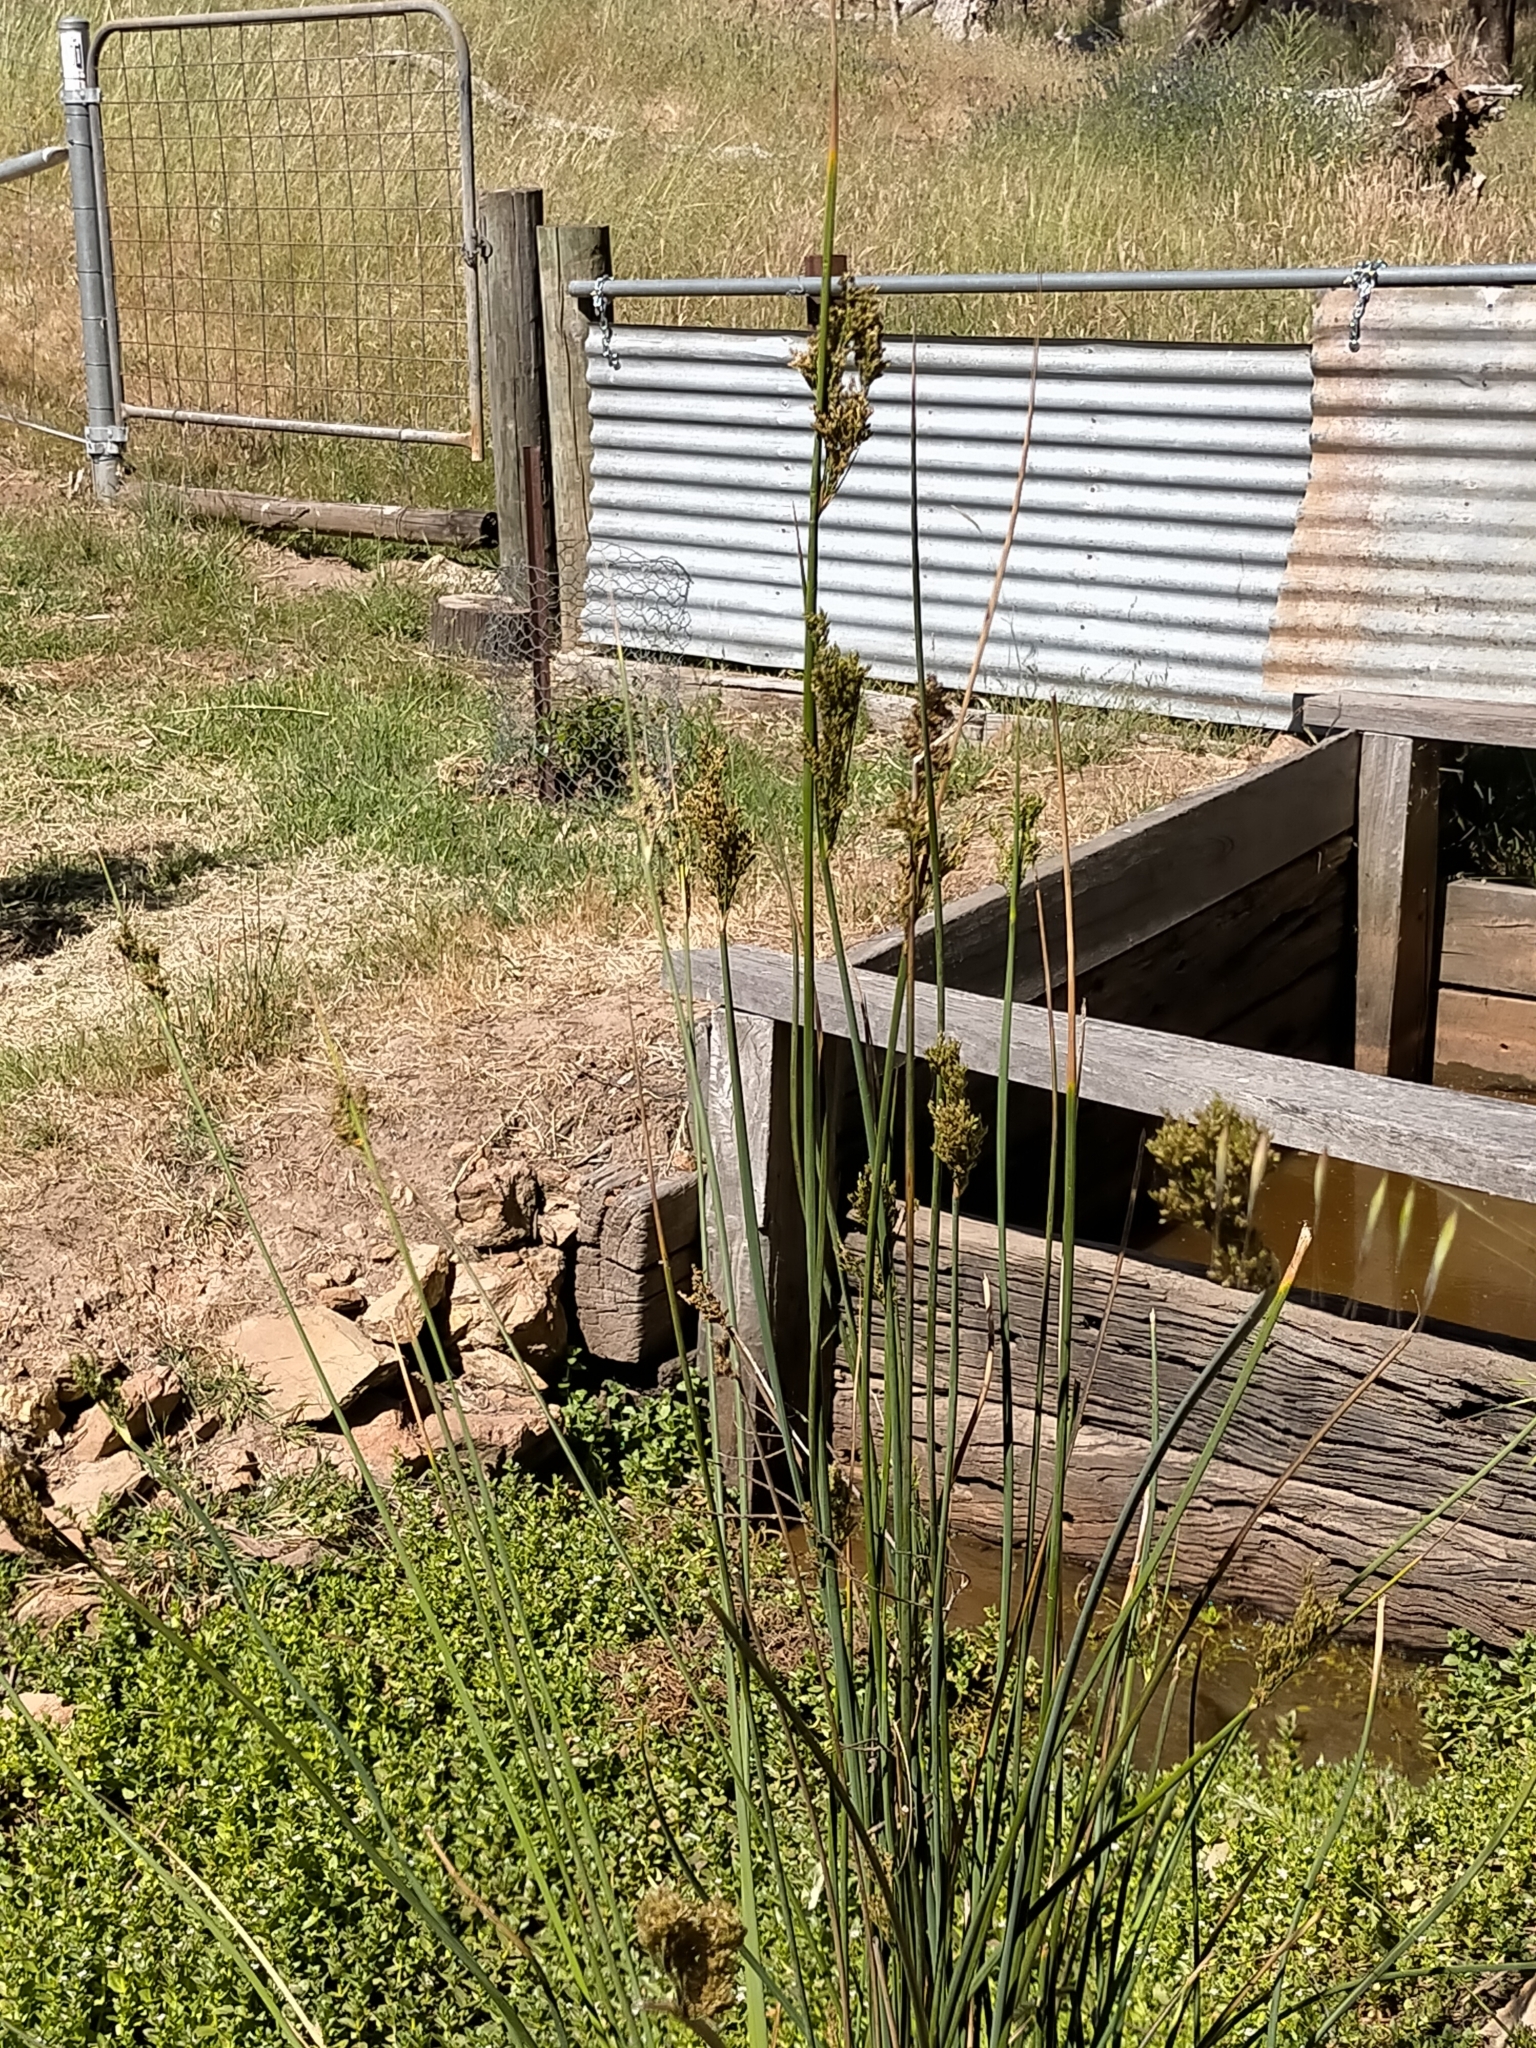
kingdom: Plantae
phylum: Tracheophyta
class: Liliopsida
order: Poales
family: Juncaceae
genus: Juncus
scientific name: Juncus pallidus
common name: Great soft-rush
